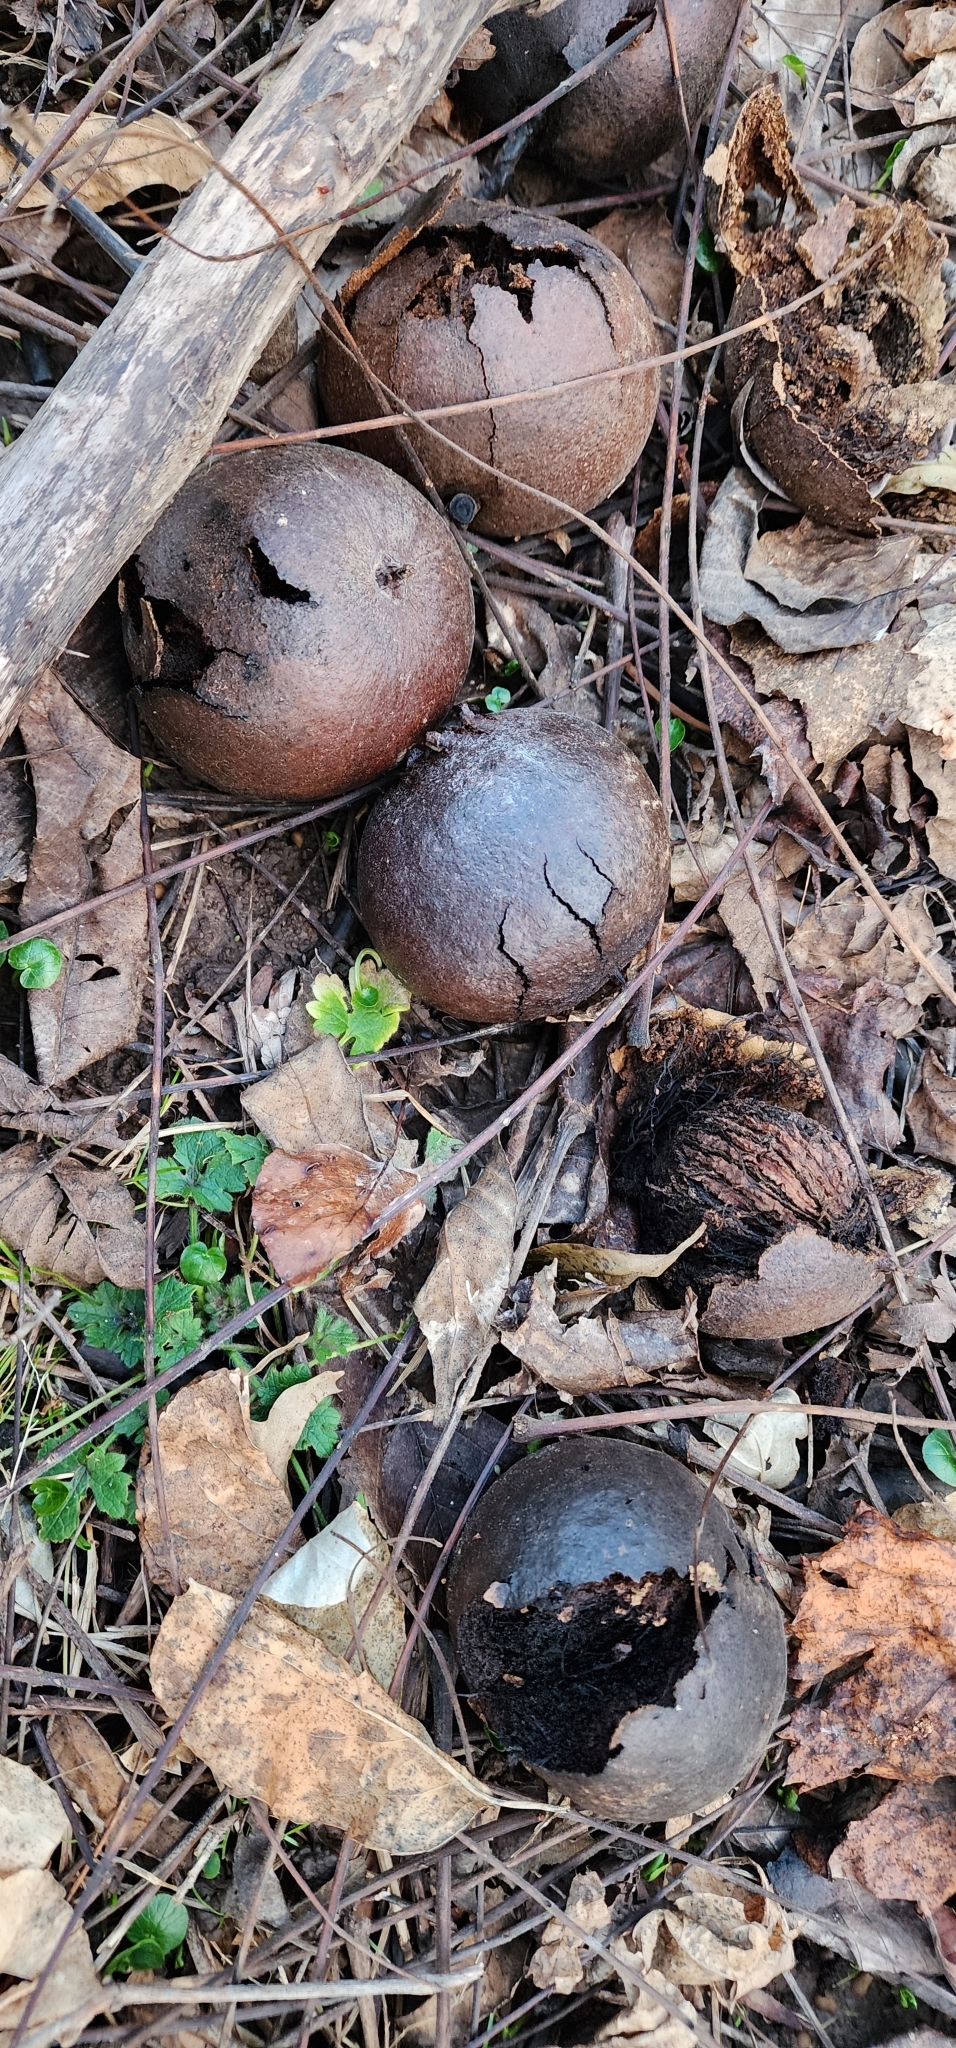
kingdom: Plantae
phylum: Tracheophyta
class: Magnoliopsida
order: Fagales
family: Juglandaceae
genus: Juglans
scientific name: Juglans nigra
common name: Black walnut
